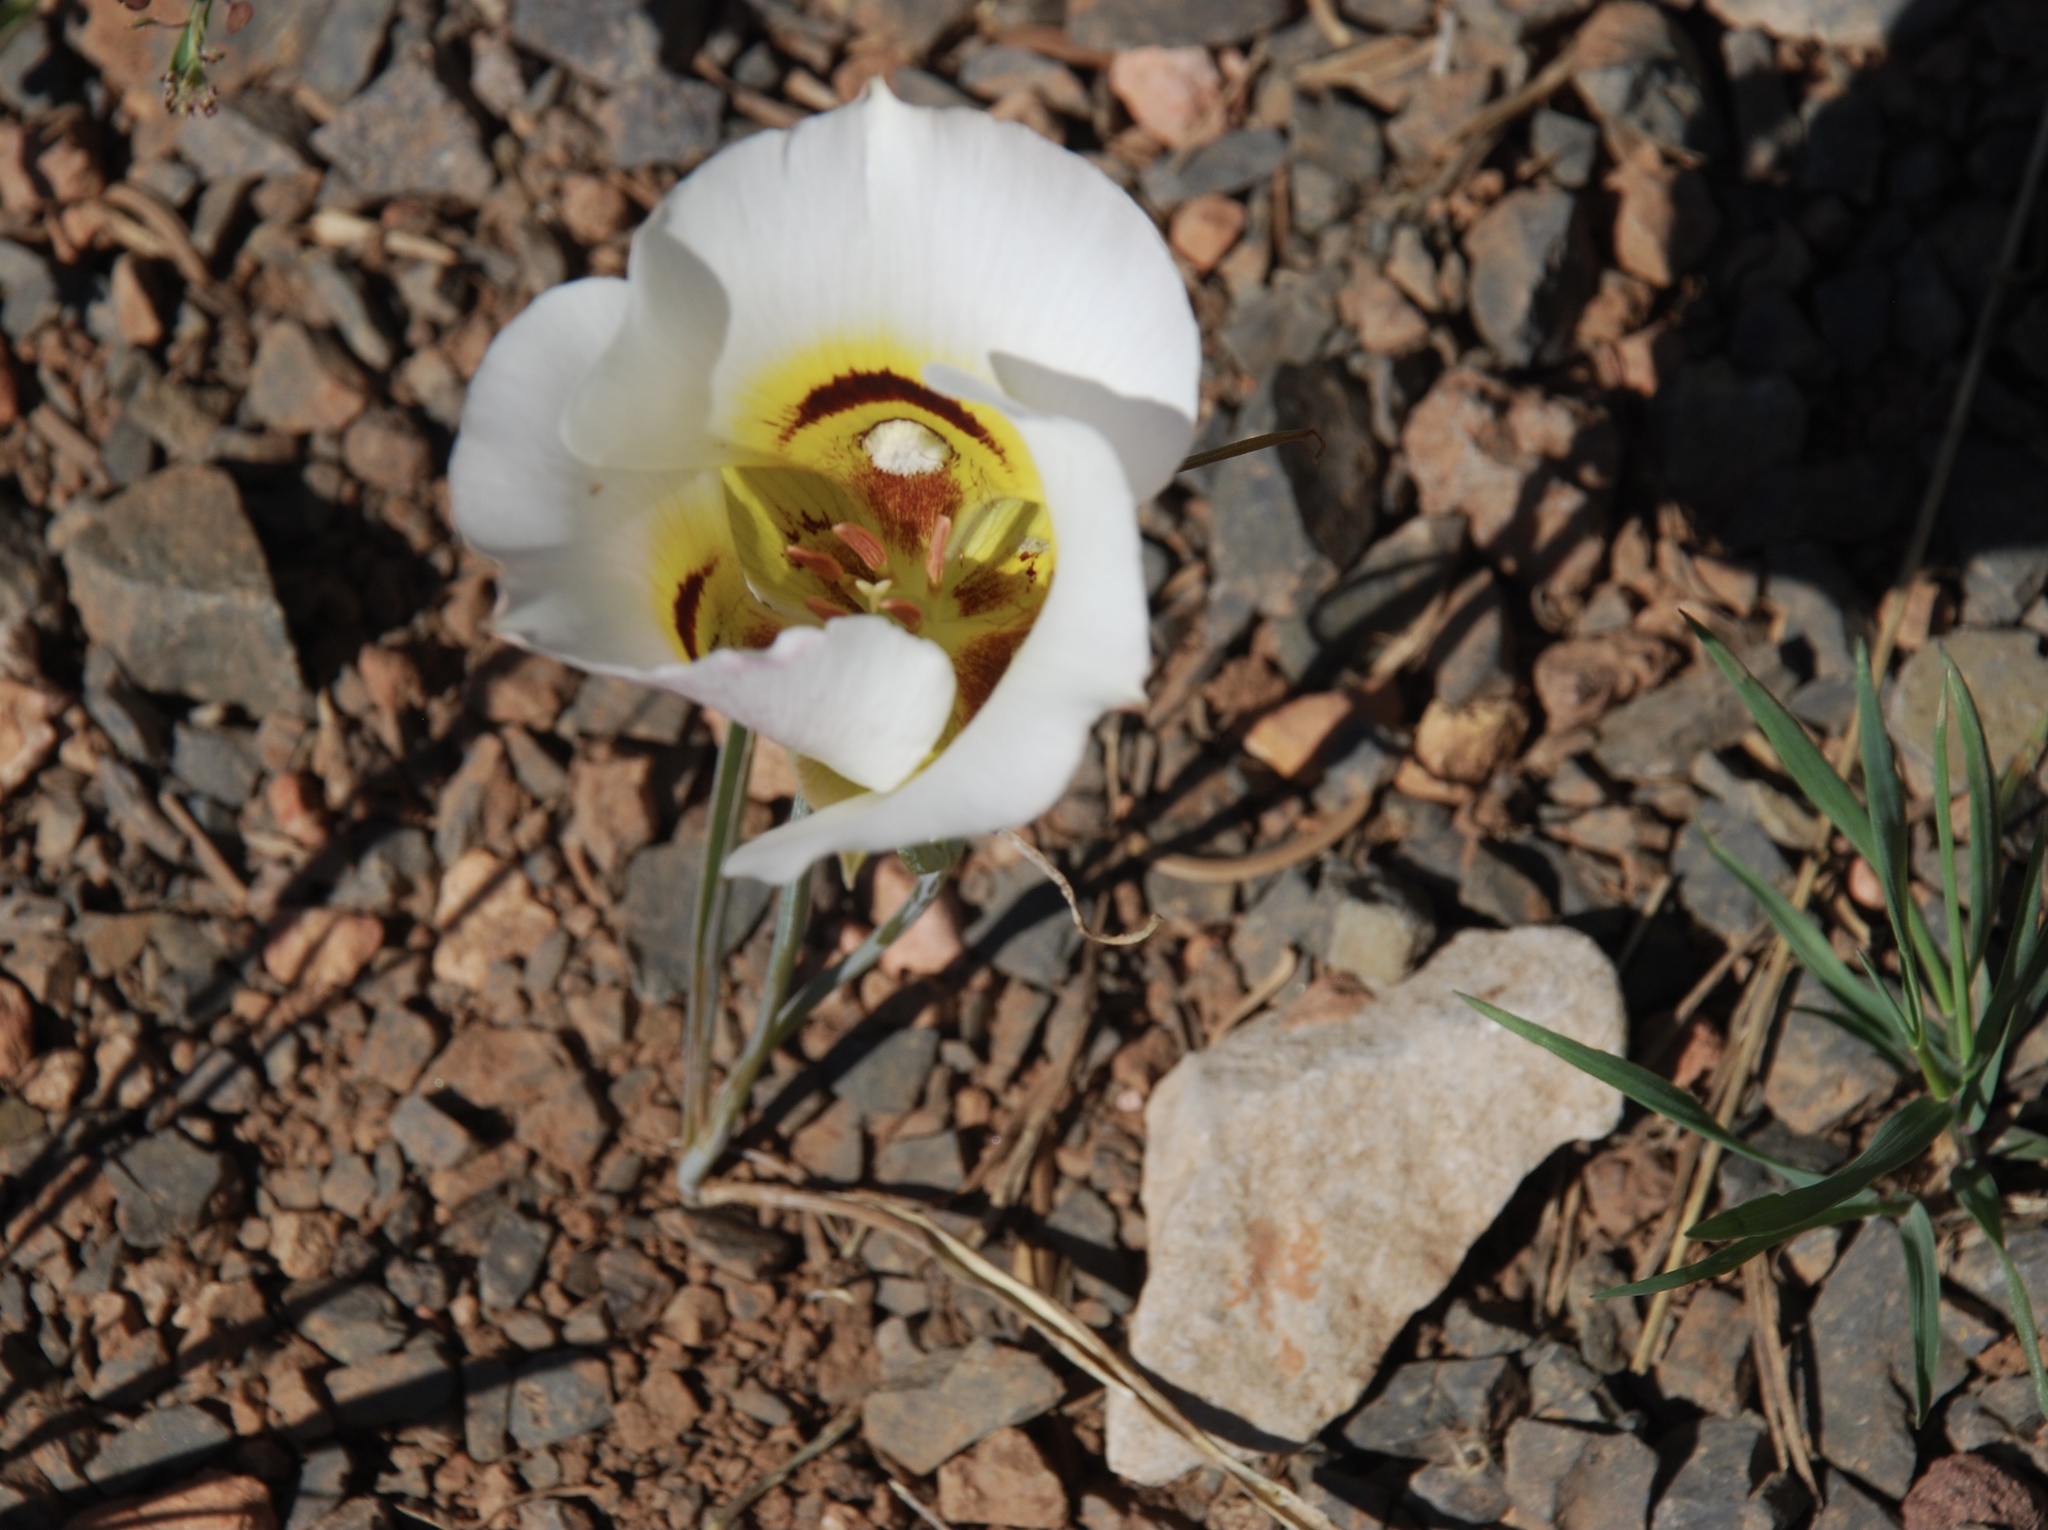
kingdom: Plantae
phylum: Tracheophyta
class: Liliopsida
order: Liliales
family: Liliaceae
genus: Calochortus
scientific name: Calochortus nuttallii
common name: Sego-lily
